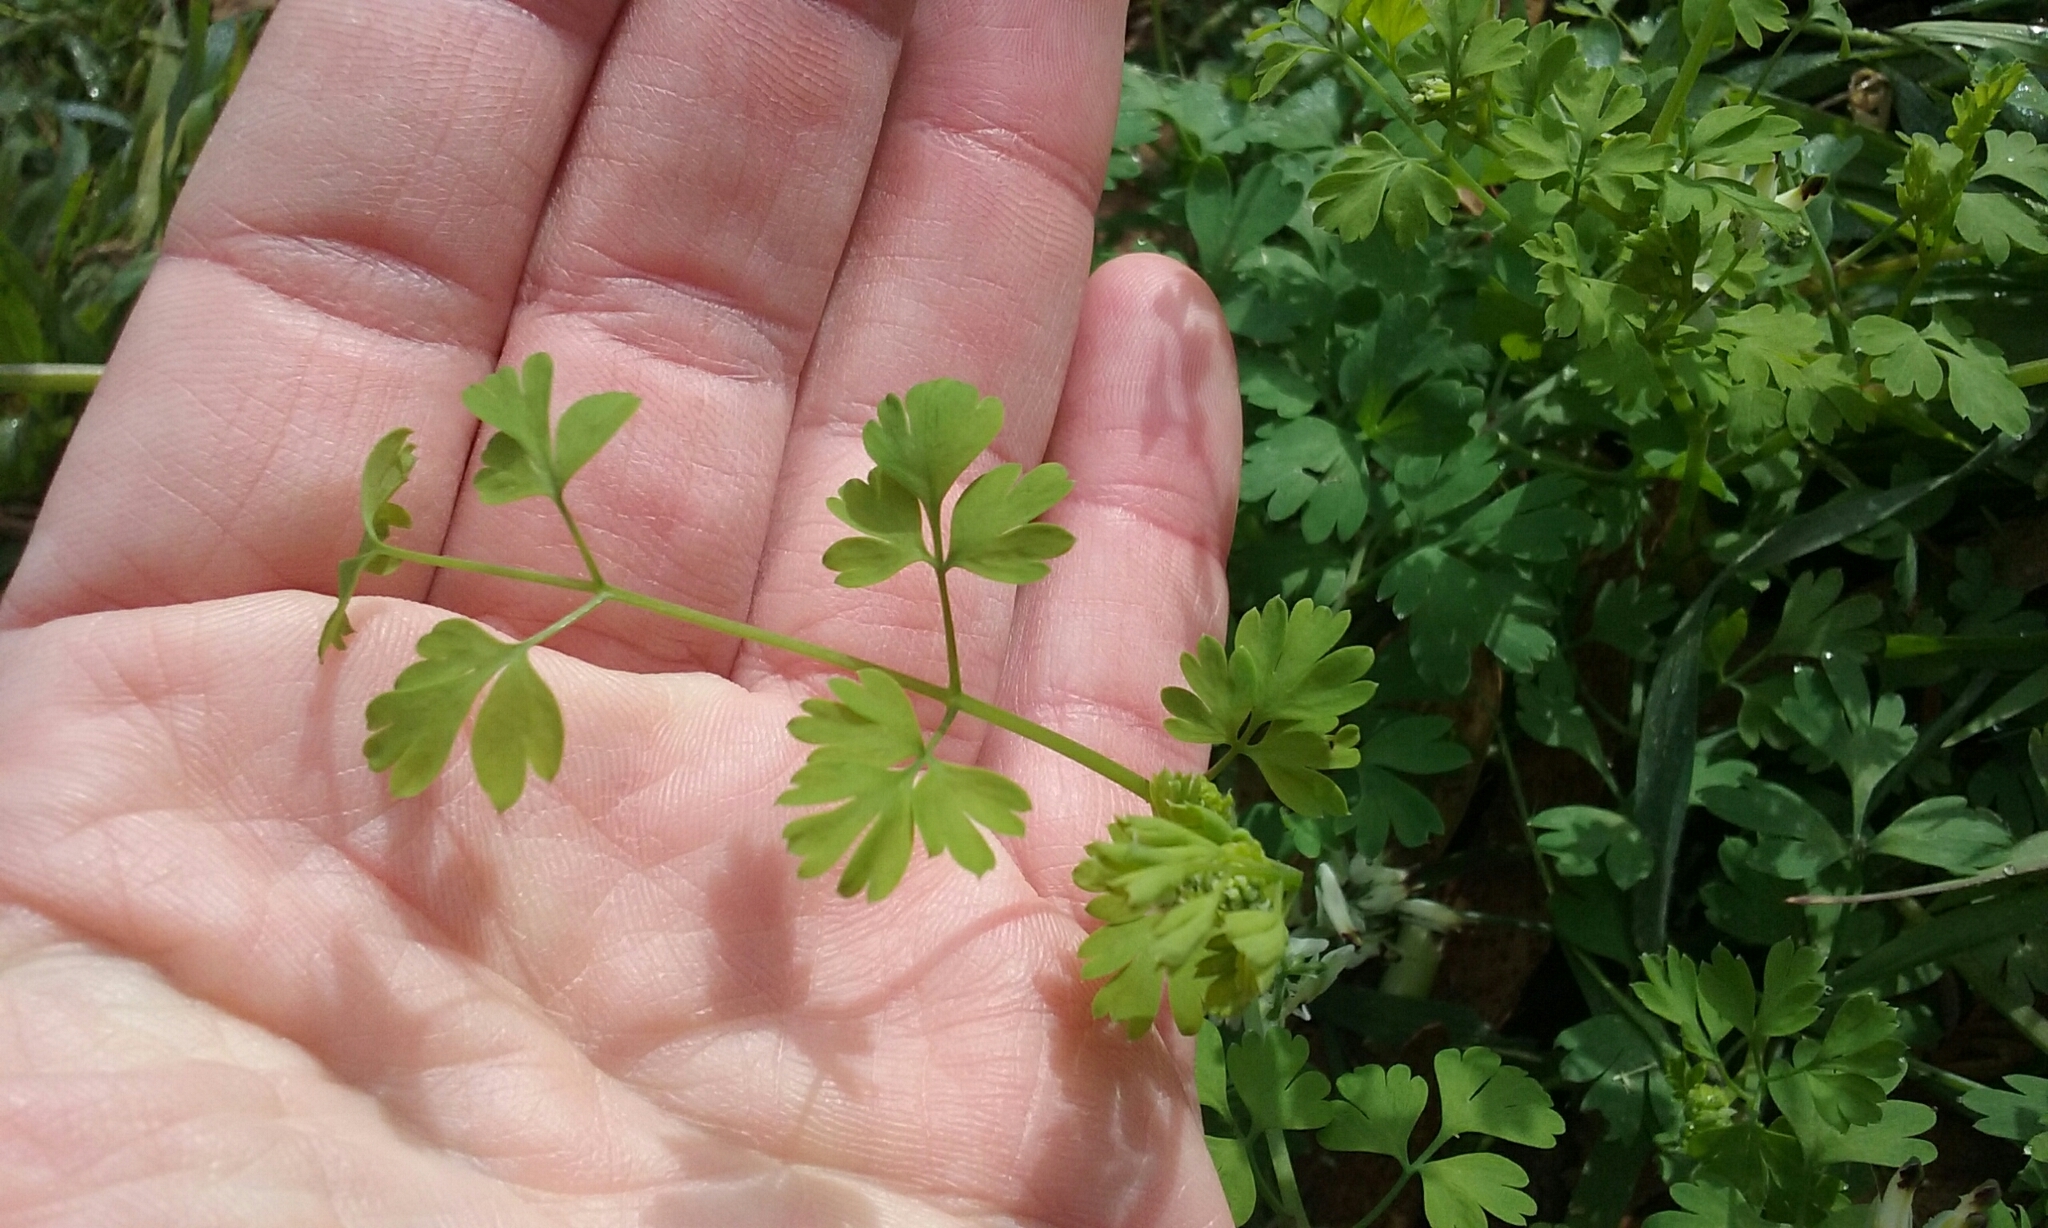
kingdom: Plantae
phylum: Tracheophyta
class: Magnoliopsida
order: Ranunculales
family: Papaveraceae
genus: Fumaria
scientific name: Fumaria capreolata
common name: White ramping-fumitory
